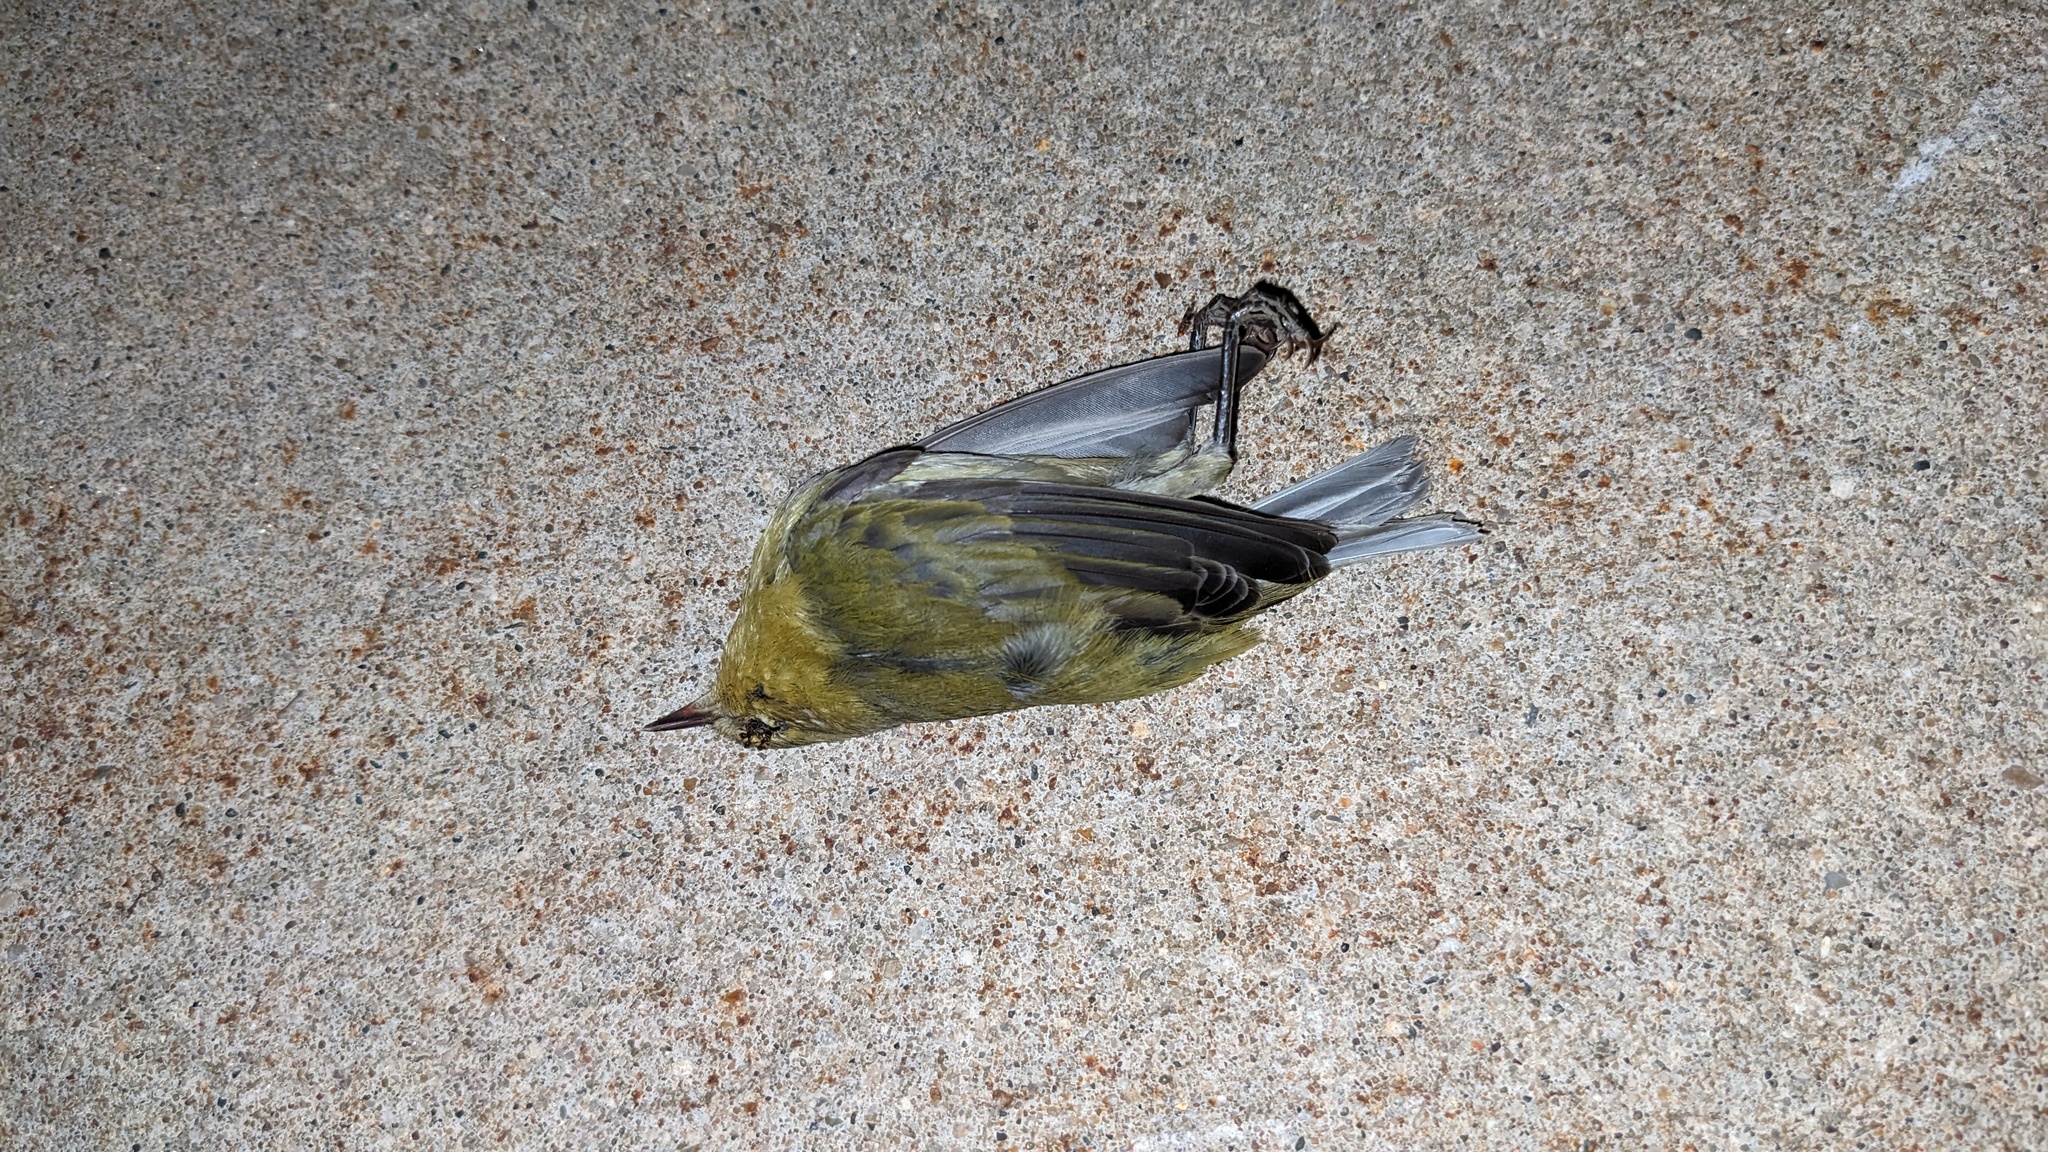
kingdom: Animalia
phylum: Chordata
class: Aves
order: Passeriformes
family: Parulidae
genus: Leiothlypis
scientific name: Leiothlypis peregrina
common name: Tennessee warbler
